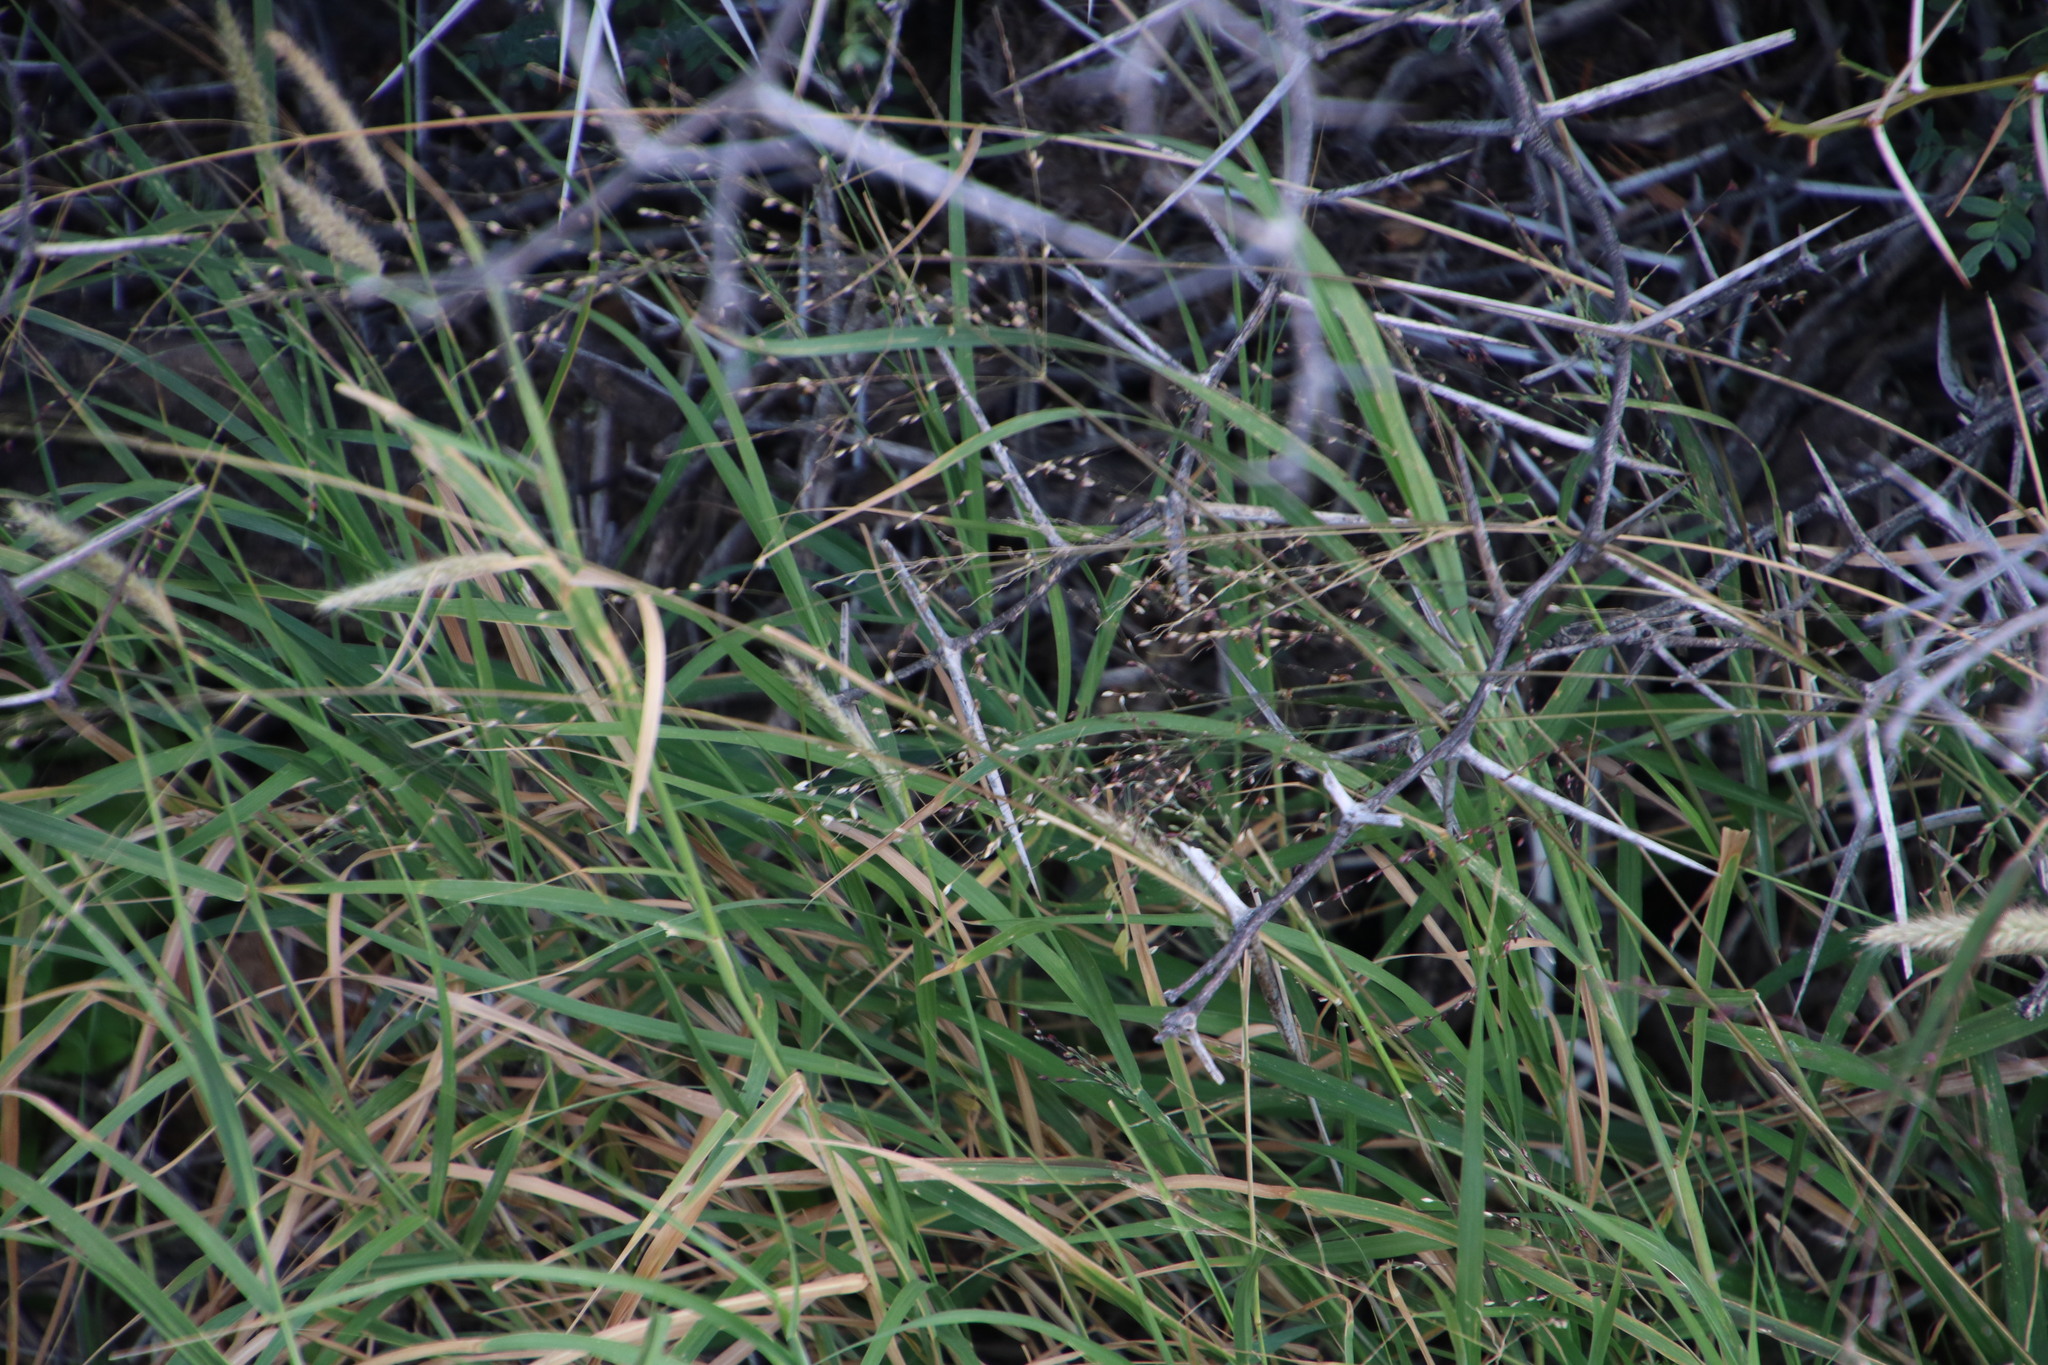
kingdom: Plantae
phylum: Tracheophyta
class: Liliopsida
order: Poales
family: Poaceae
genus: Cenchrus
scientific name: Cenchrus ciliaris
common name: Buffelgrass
